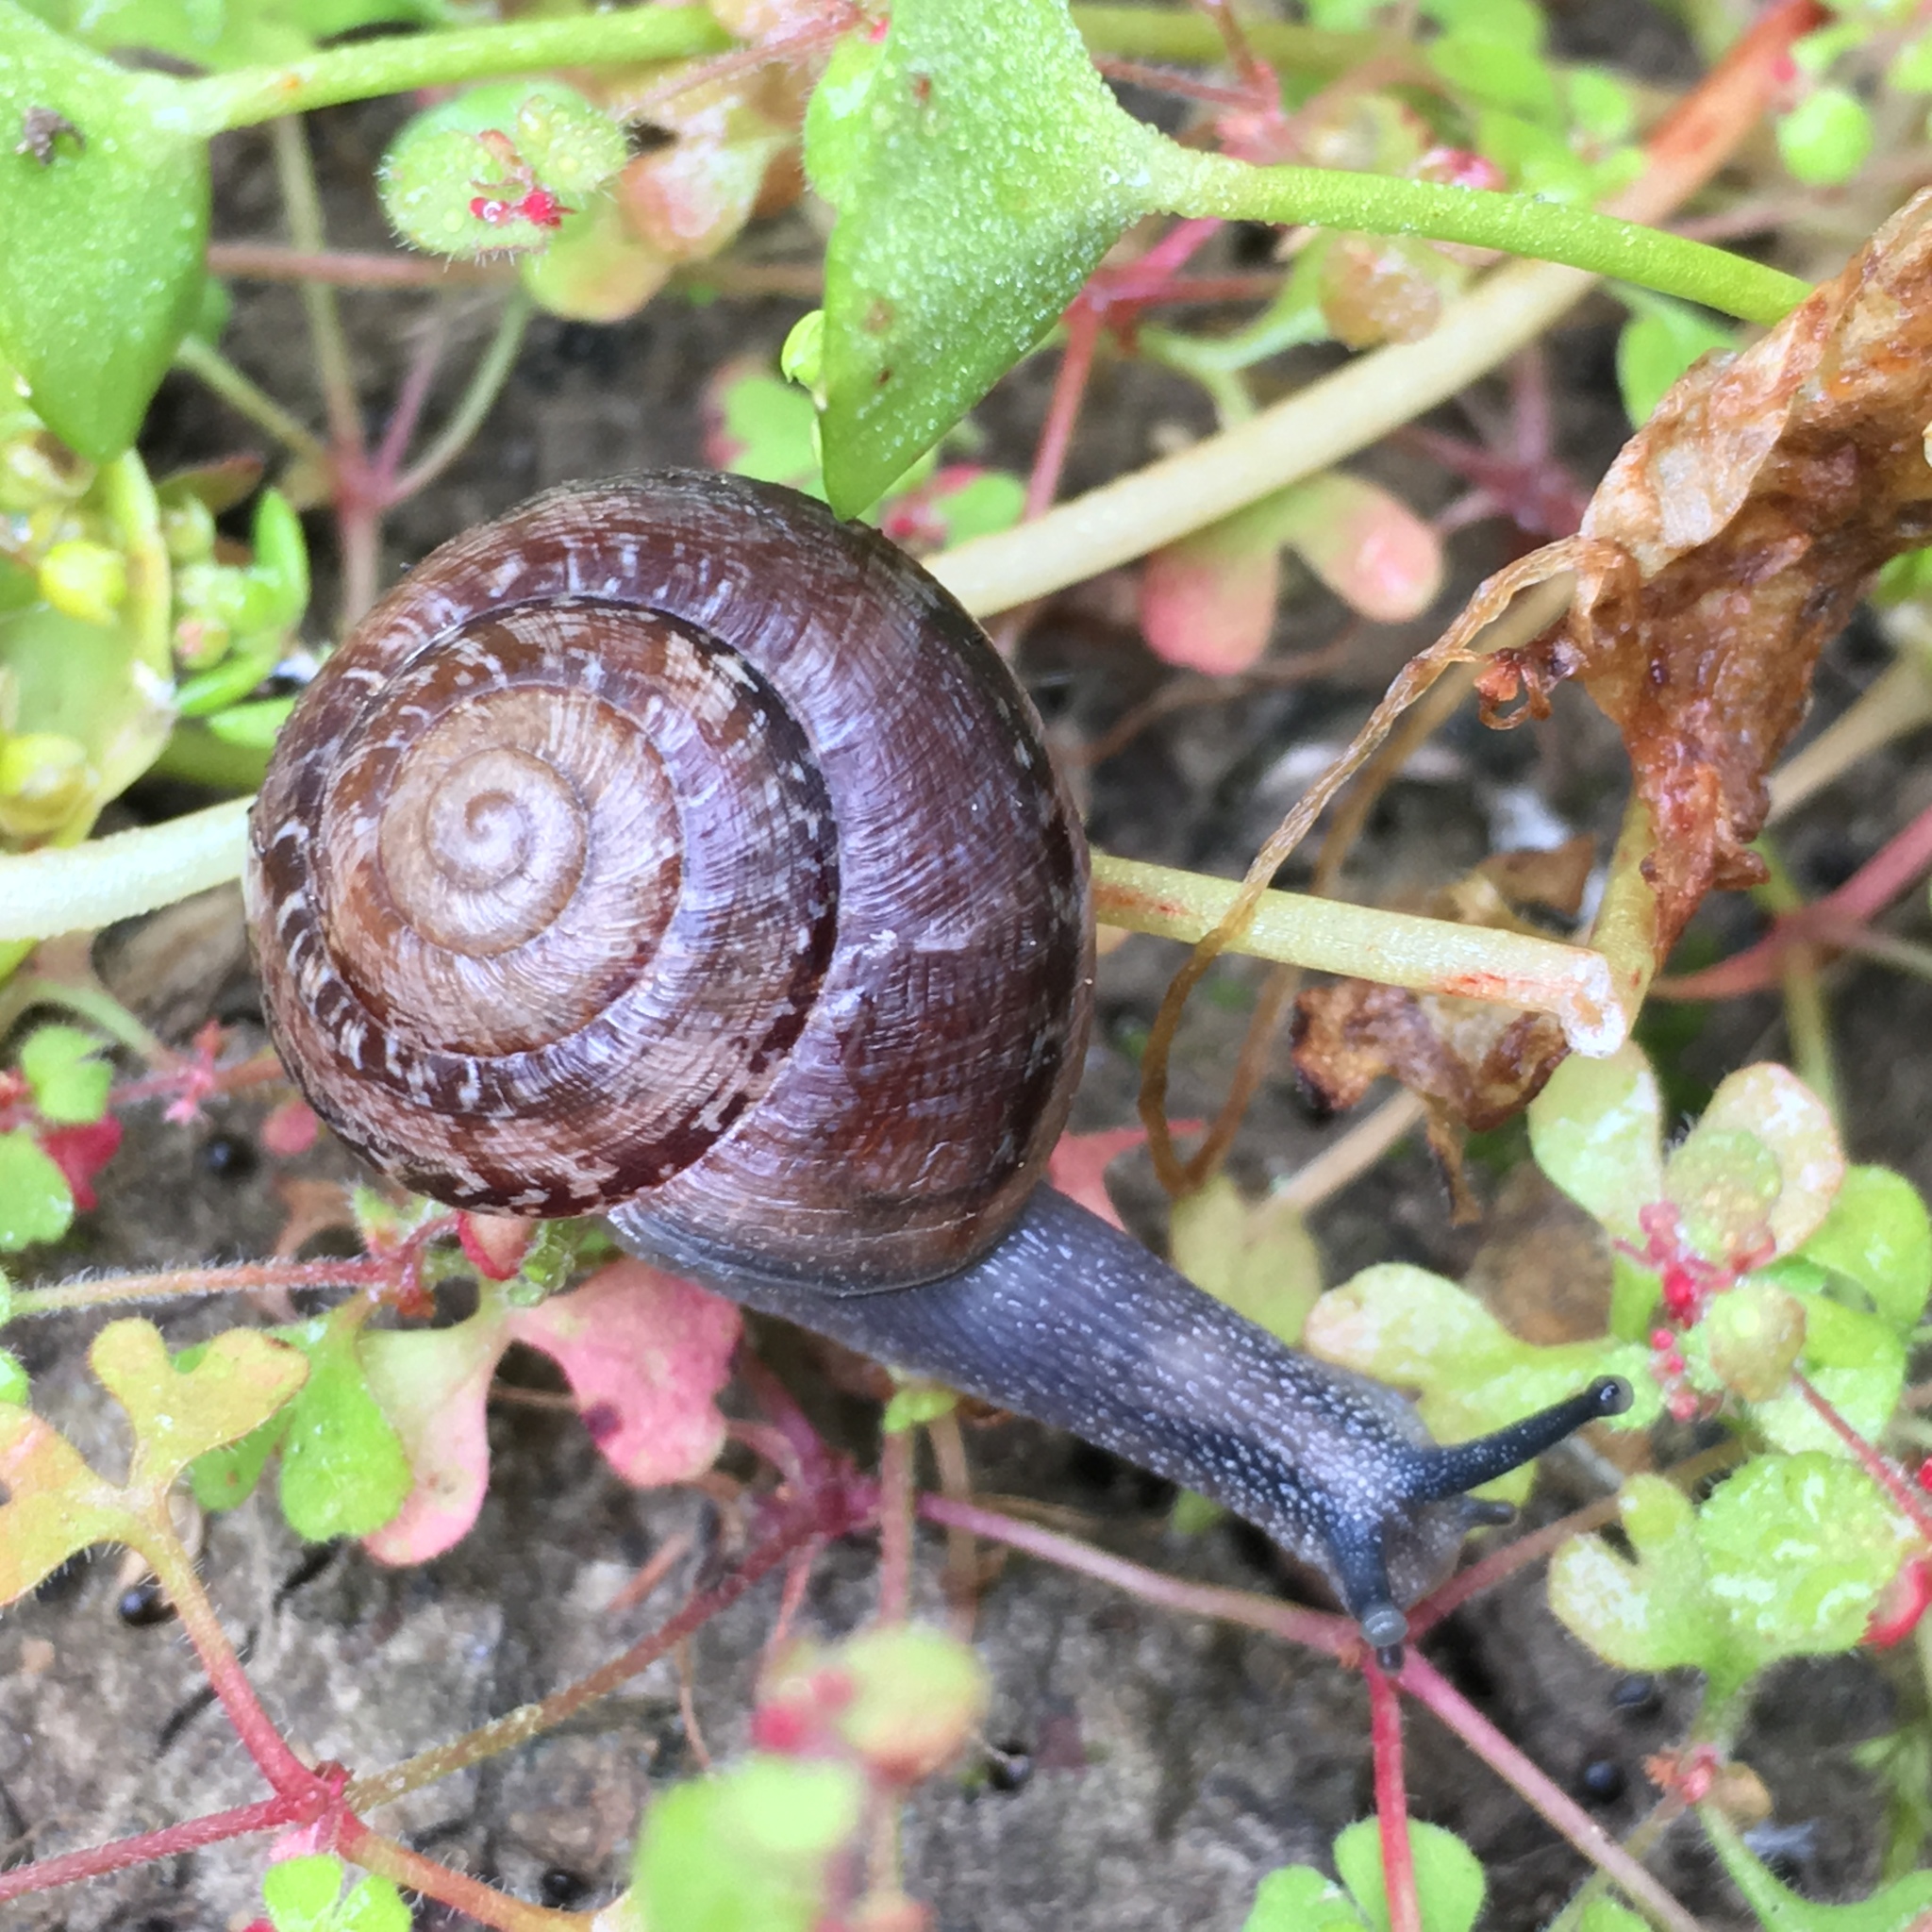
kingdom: Animalia
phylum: Mollusca
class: Gastropoda
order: Stylommatophora
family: Xanthonychidae
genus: Xerarionta
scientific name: Xerarionta tryoni
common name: Bicolor cactus snail
